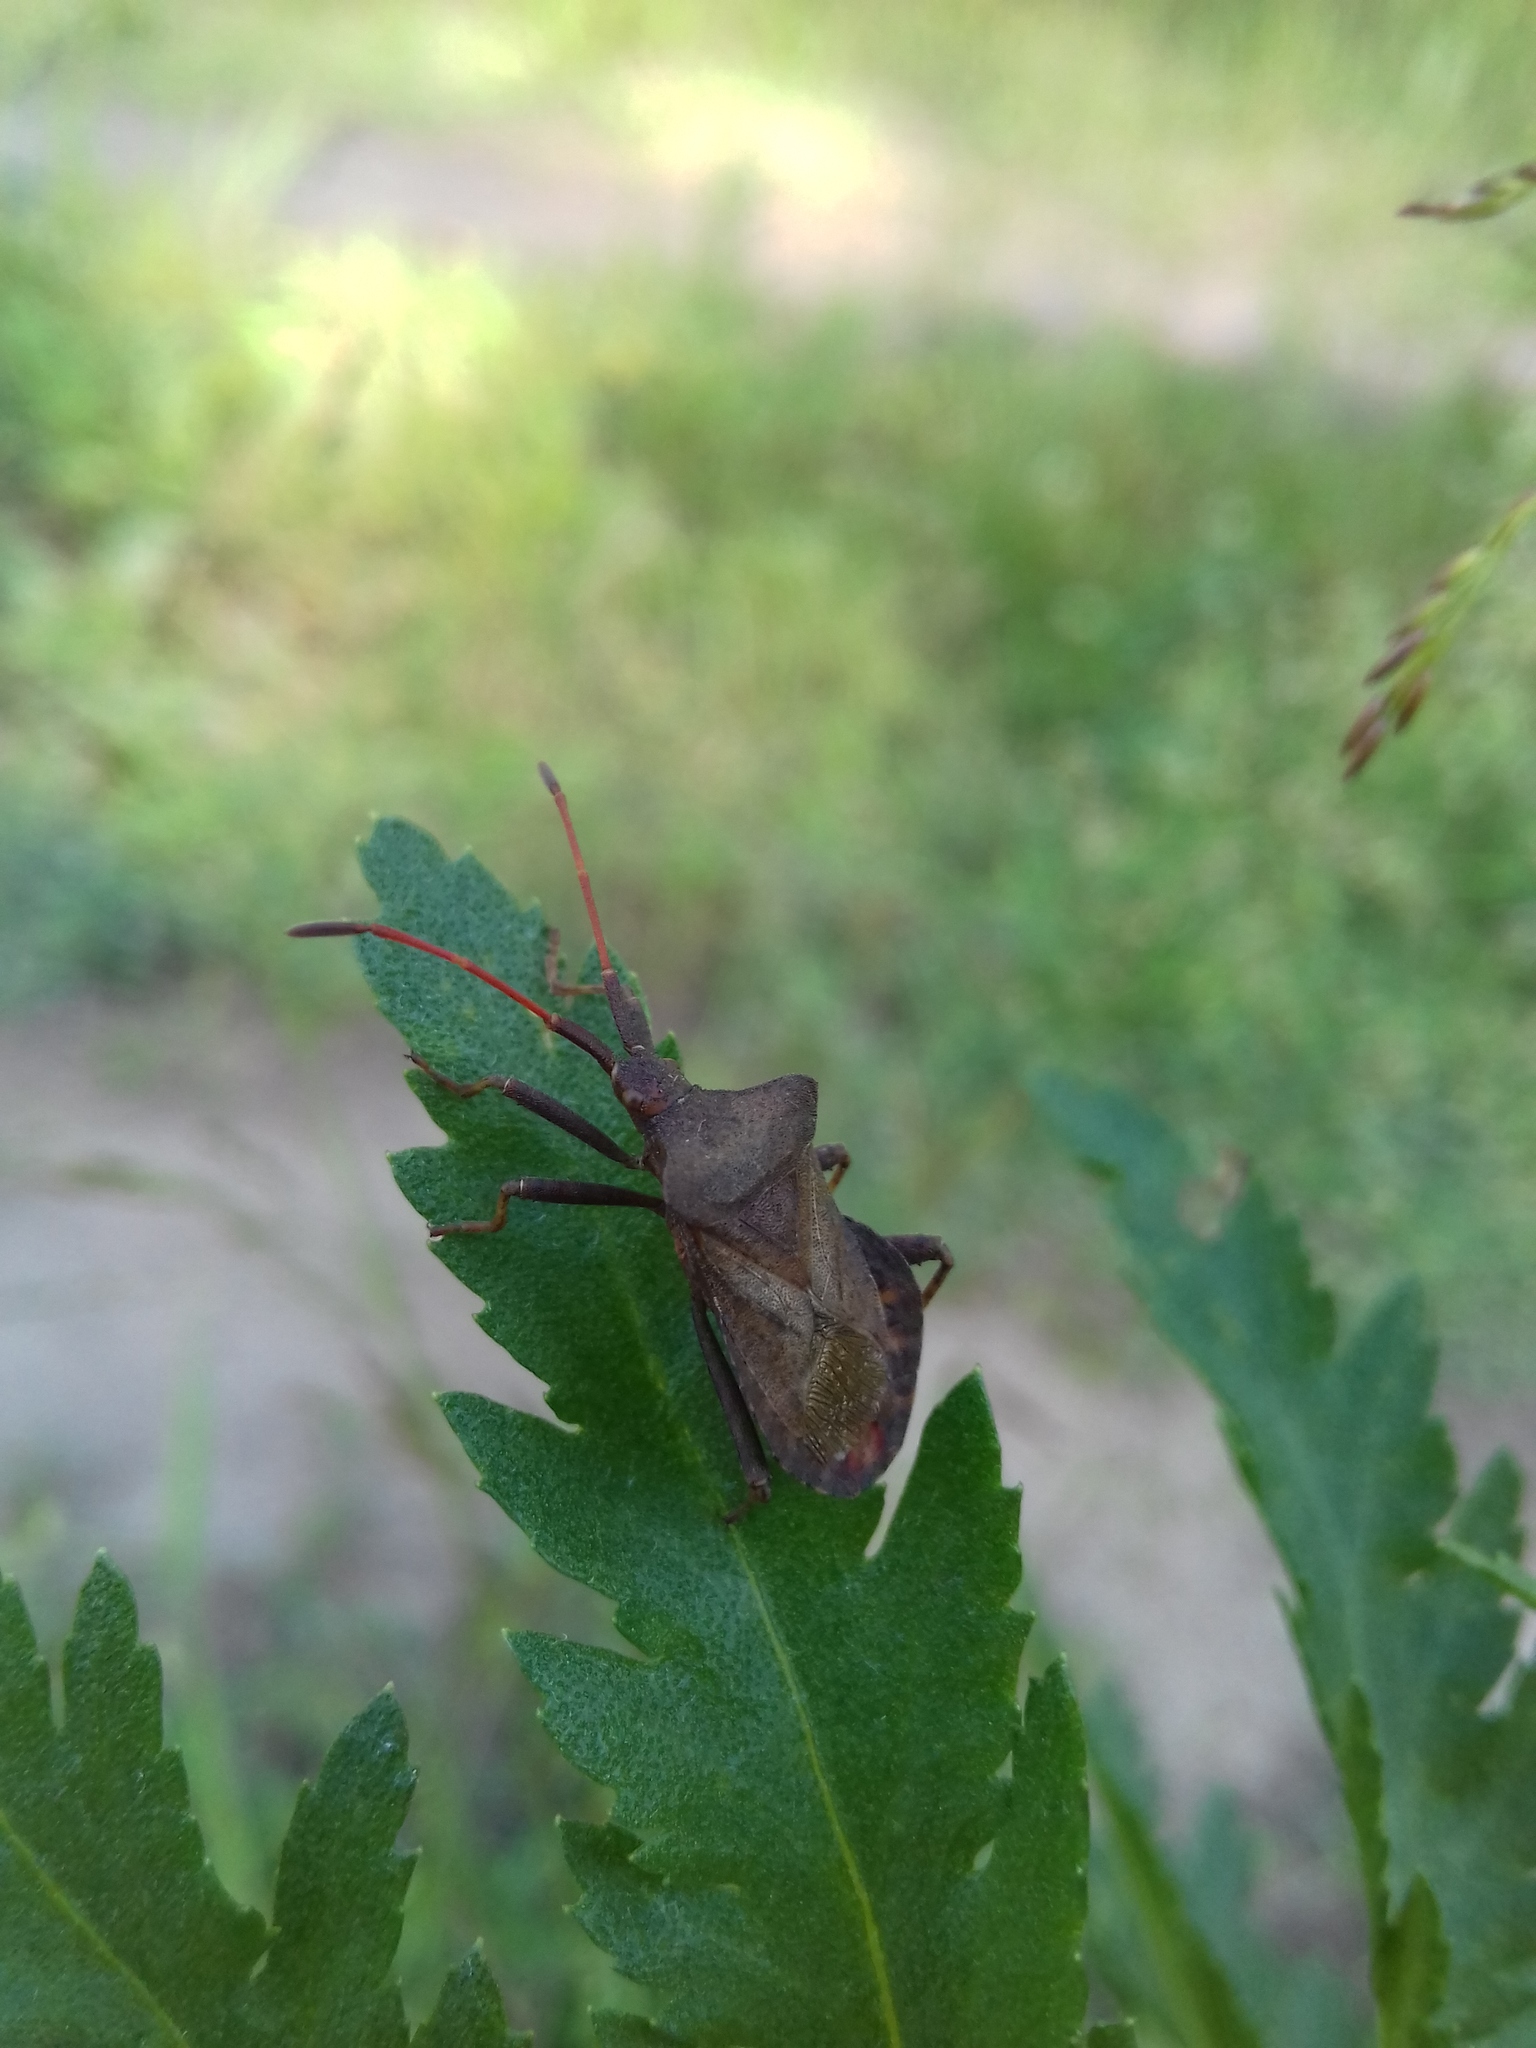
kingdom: Animalia
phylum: Arthropoda
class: Insecta
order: Hemiptera
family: Coreidae
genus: Coreus
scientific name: Coreus marginatus
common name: Dock bug
